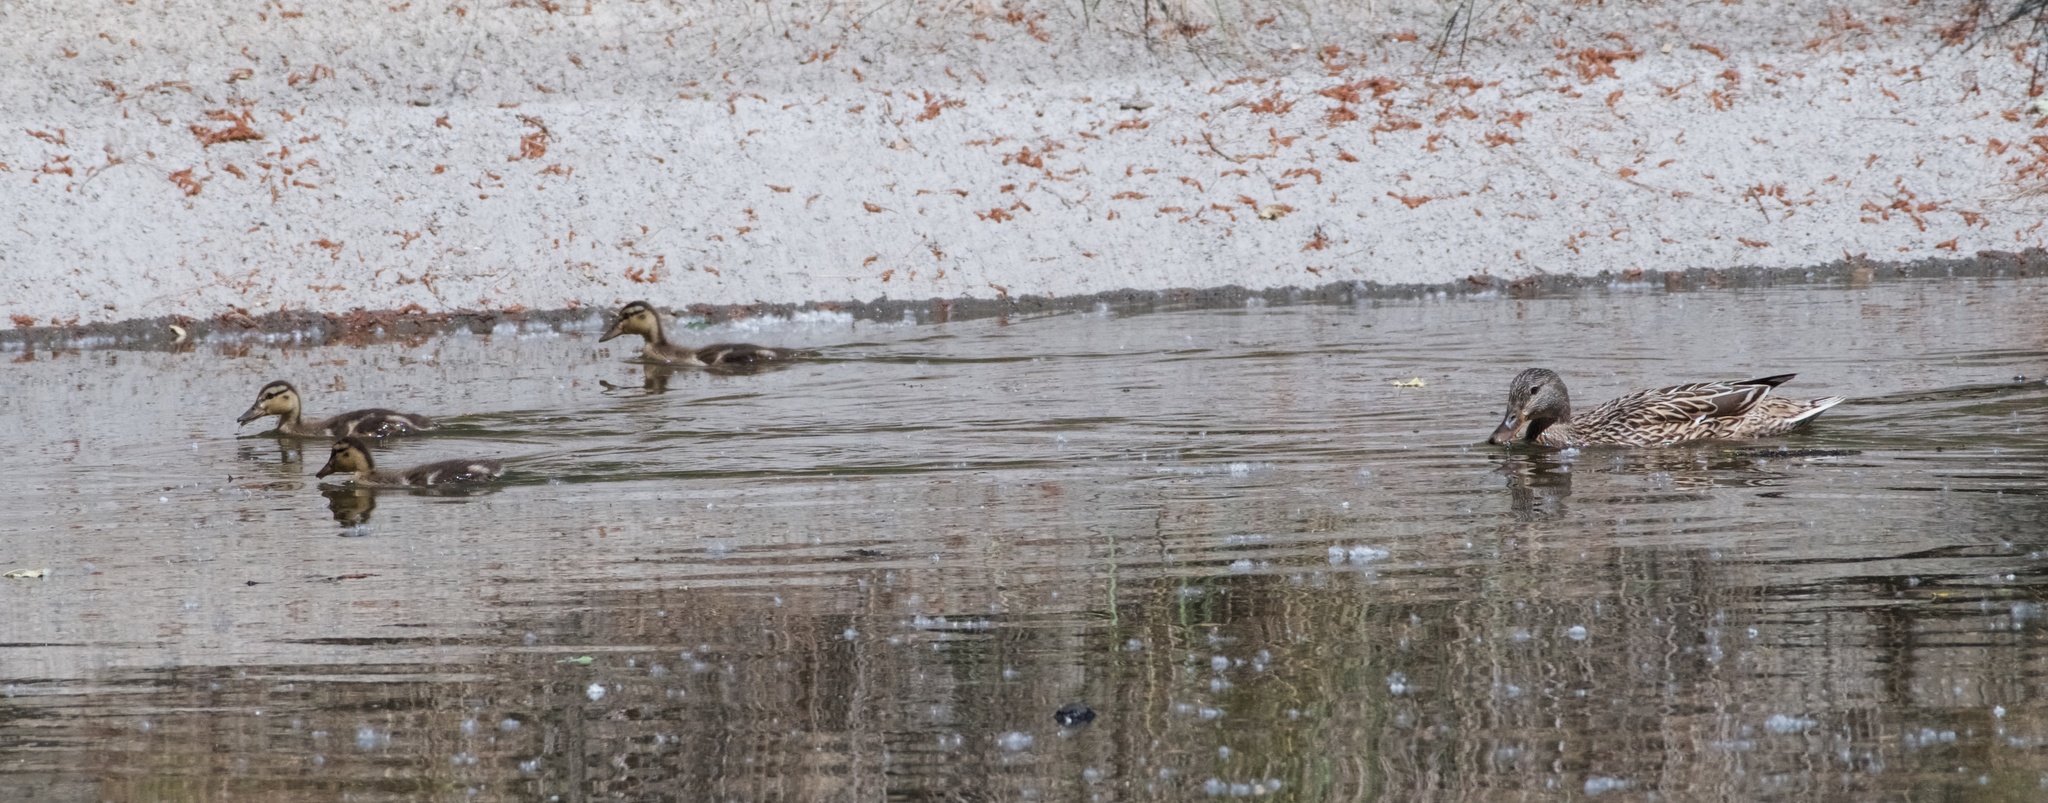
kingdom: Animalia
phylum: Chordata
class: Aves
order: Anseriformes
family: Anatidae
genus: Anas
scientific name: Anas platyrhynchos
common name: Mallard
